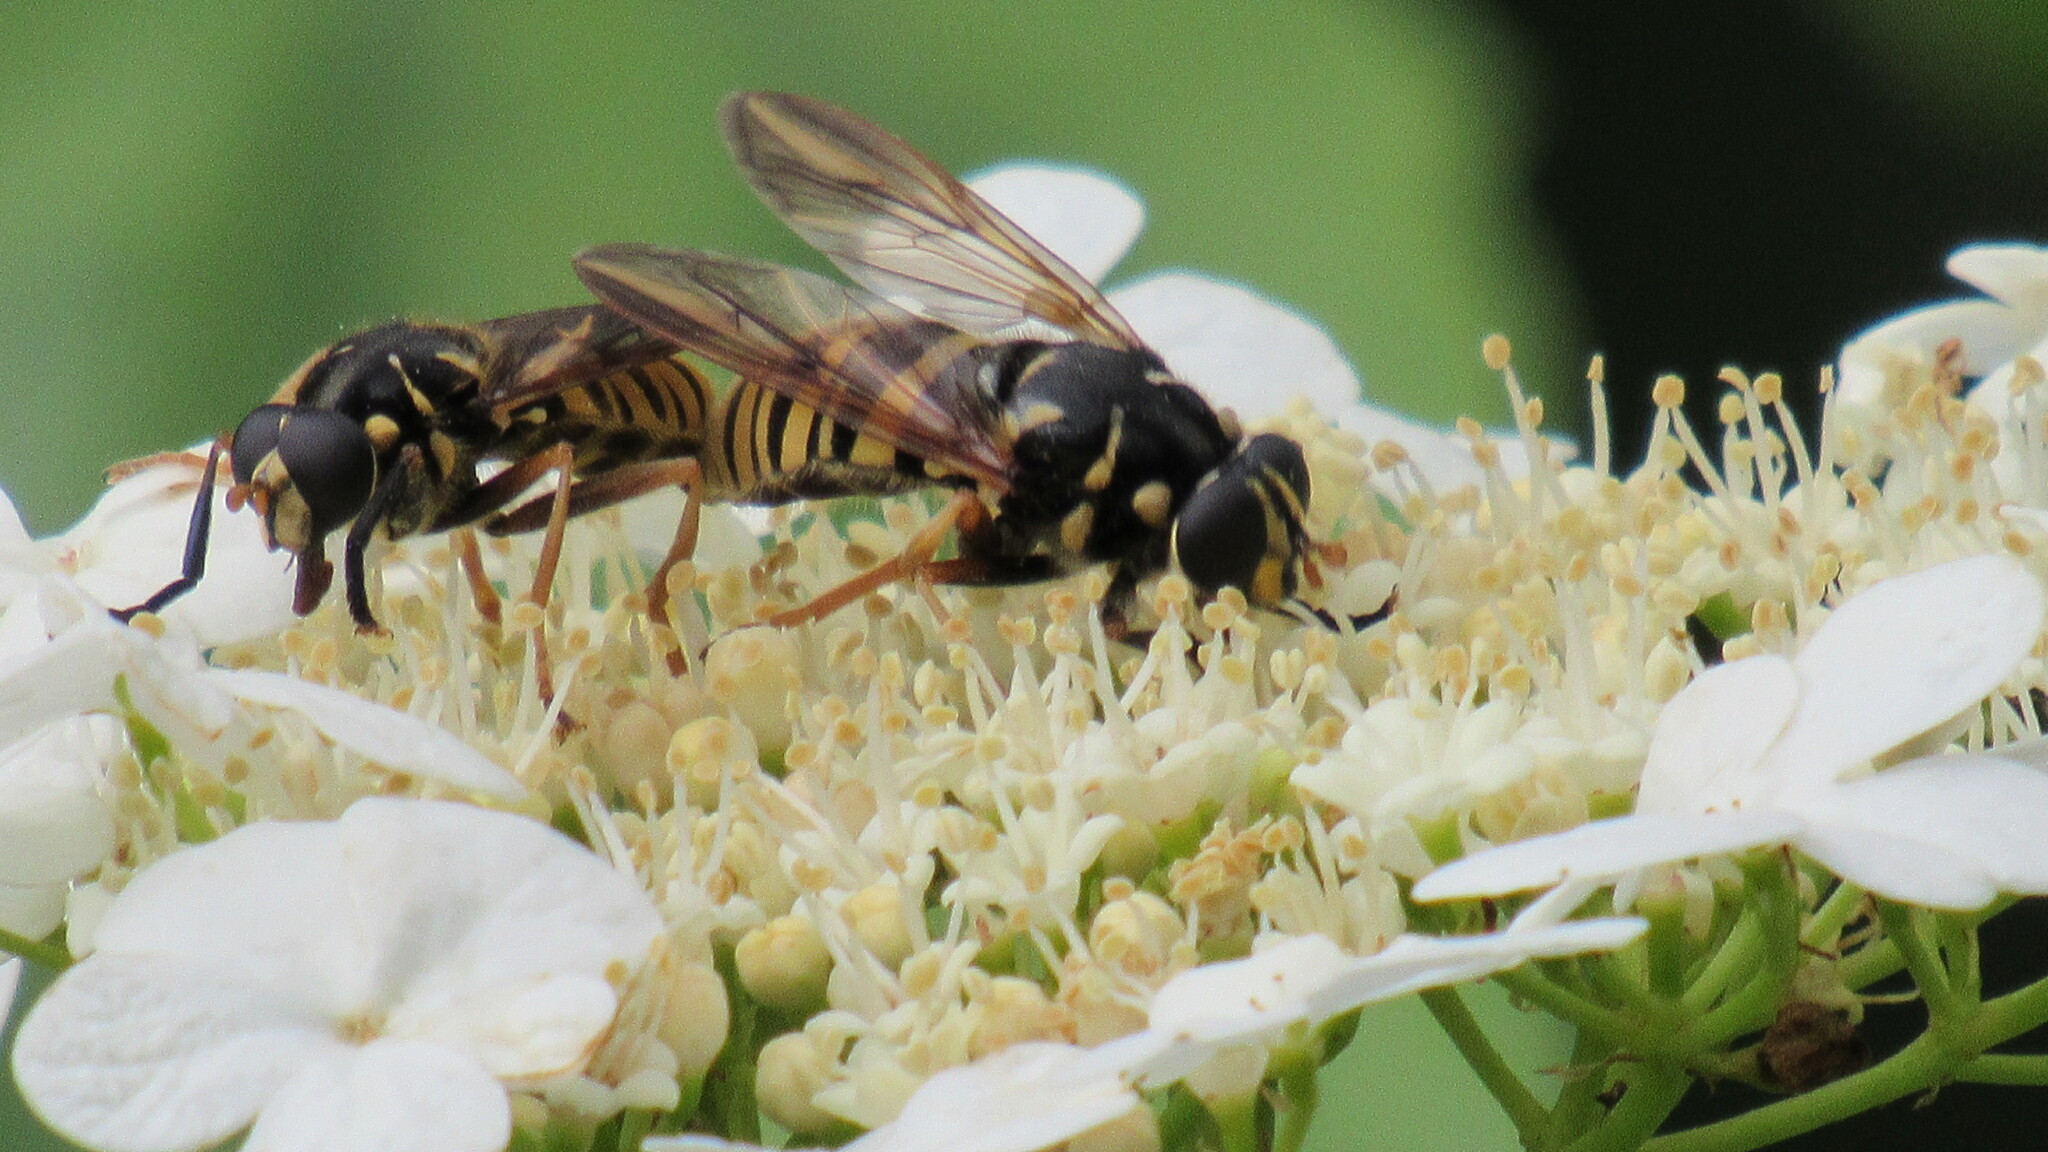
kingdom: Animalia
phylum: Arthropoda
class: Insecta
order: Diptera
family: Syrphidae
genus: Temnostoma
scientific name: Temnostoma vespiforme
